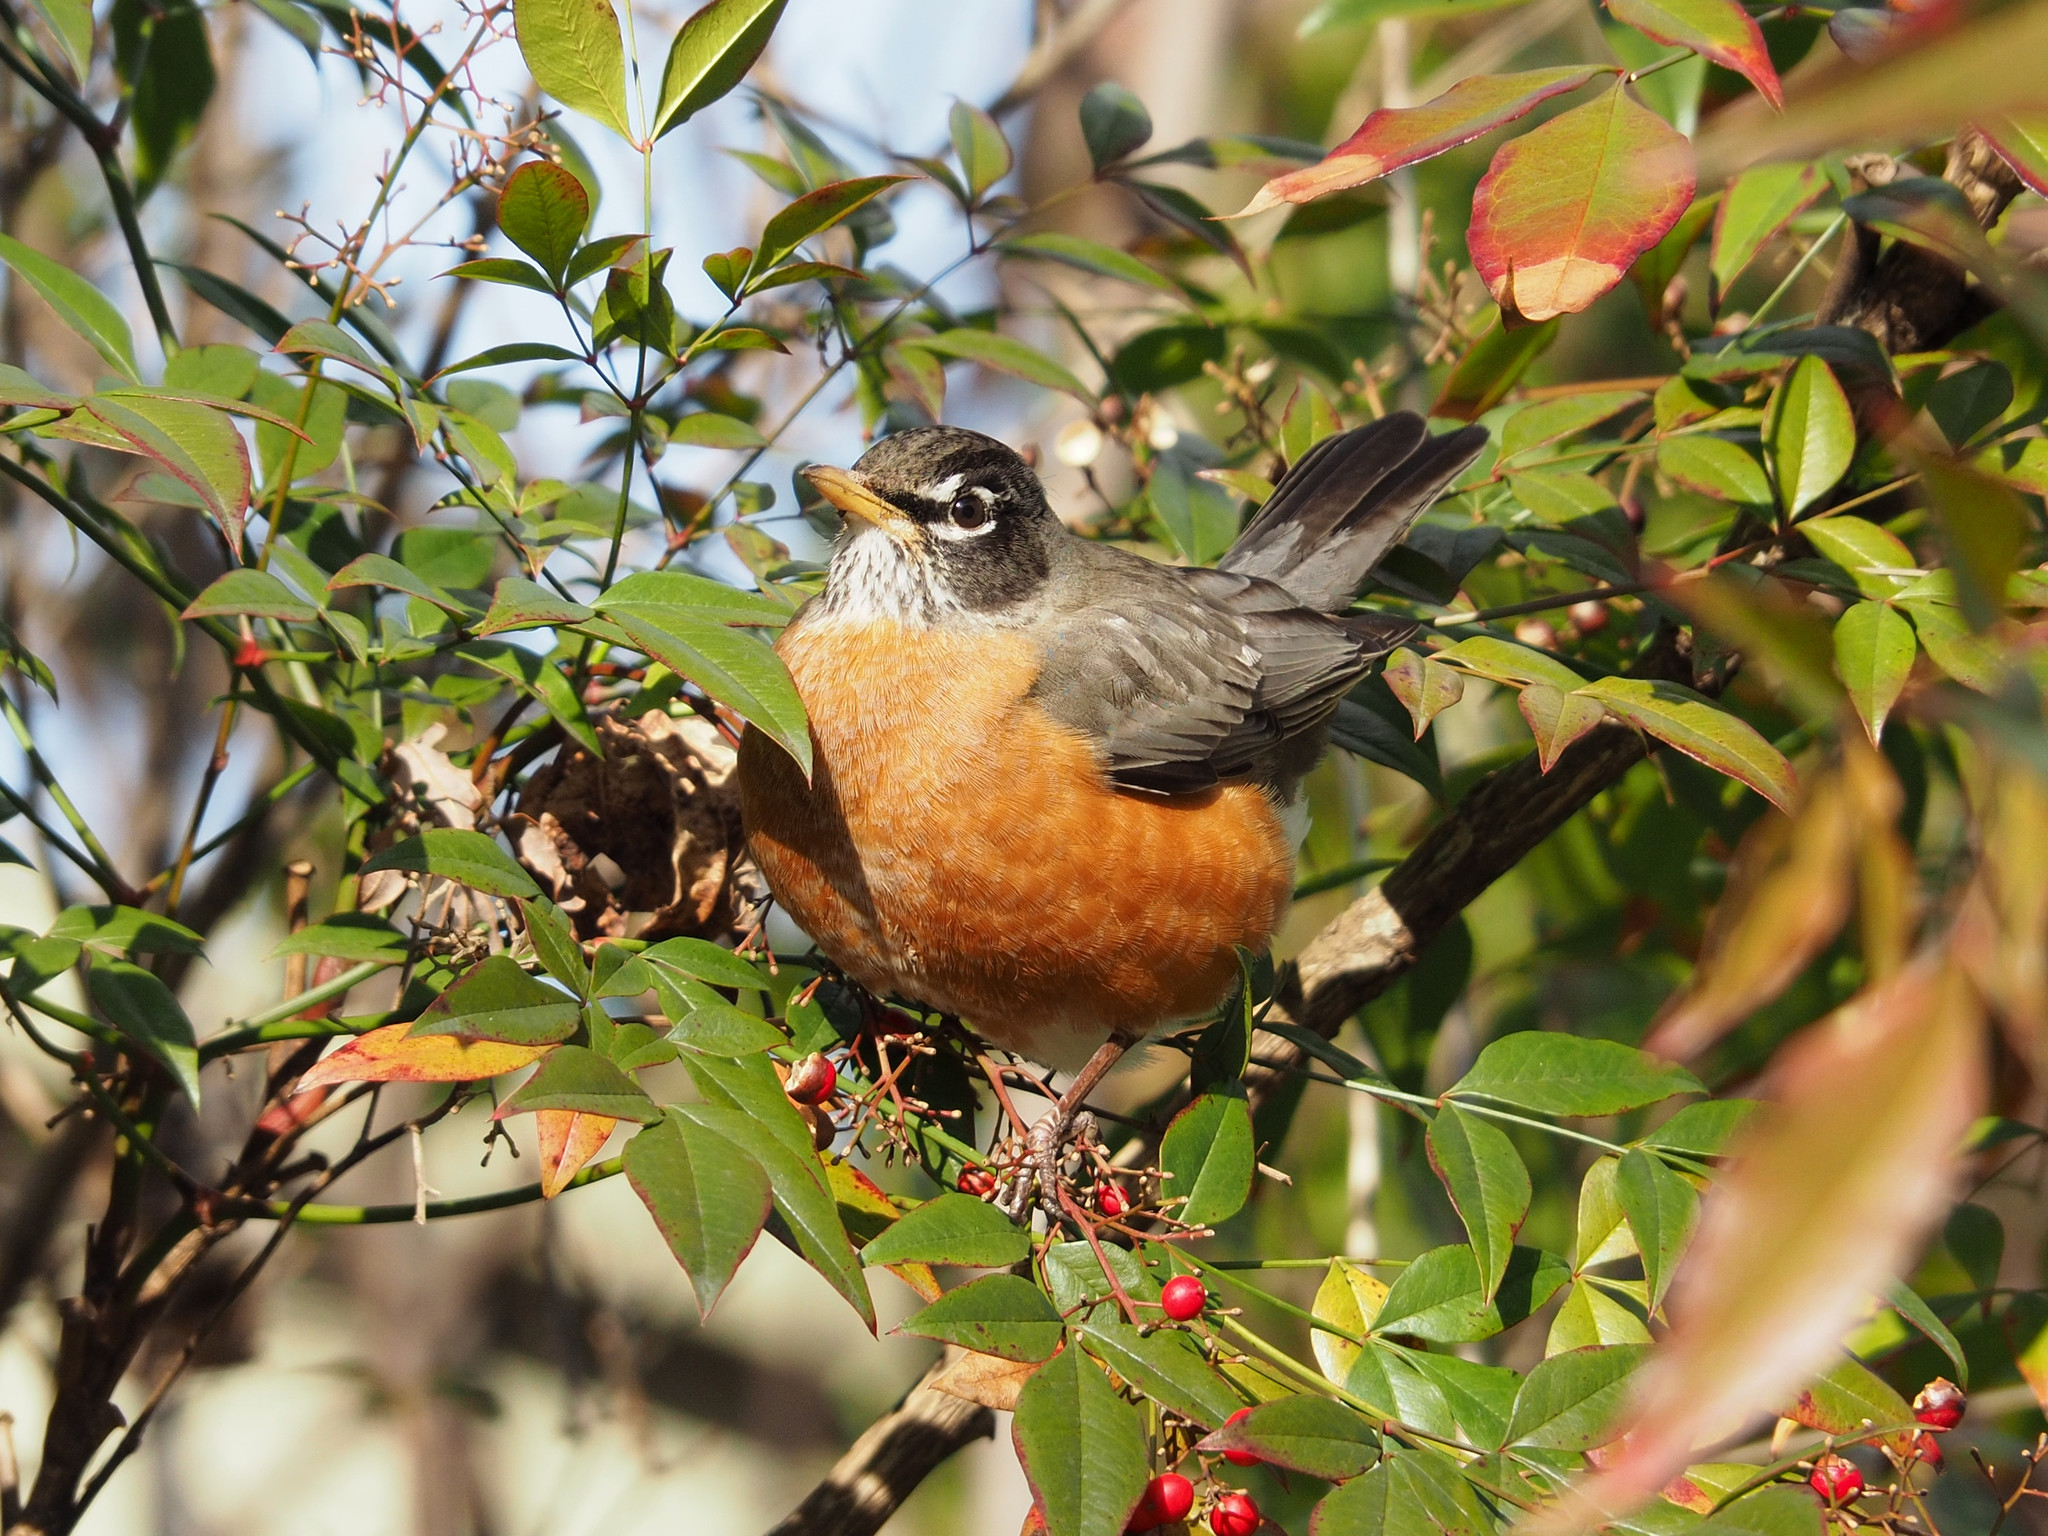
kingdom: Animalia
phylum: Chordata
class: Aves
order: Passeriformes
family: Turdidae
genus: Turdus
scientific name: Turdus migratorius
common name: American robin
